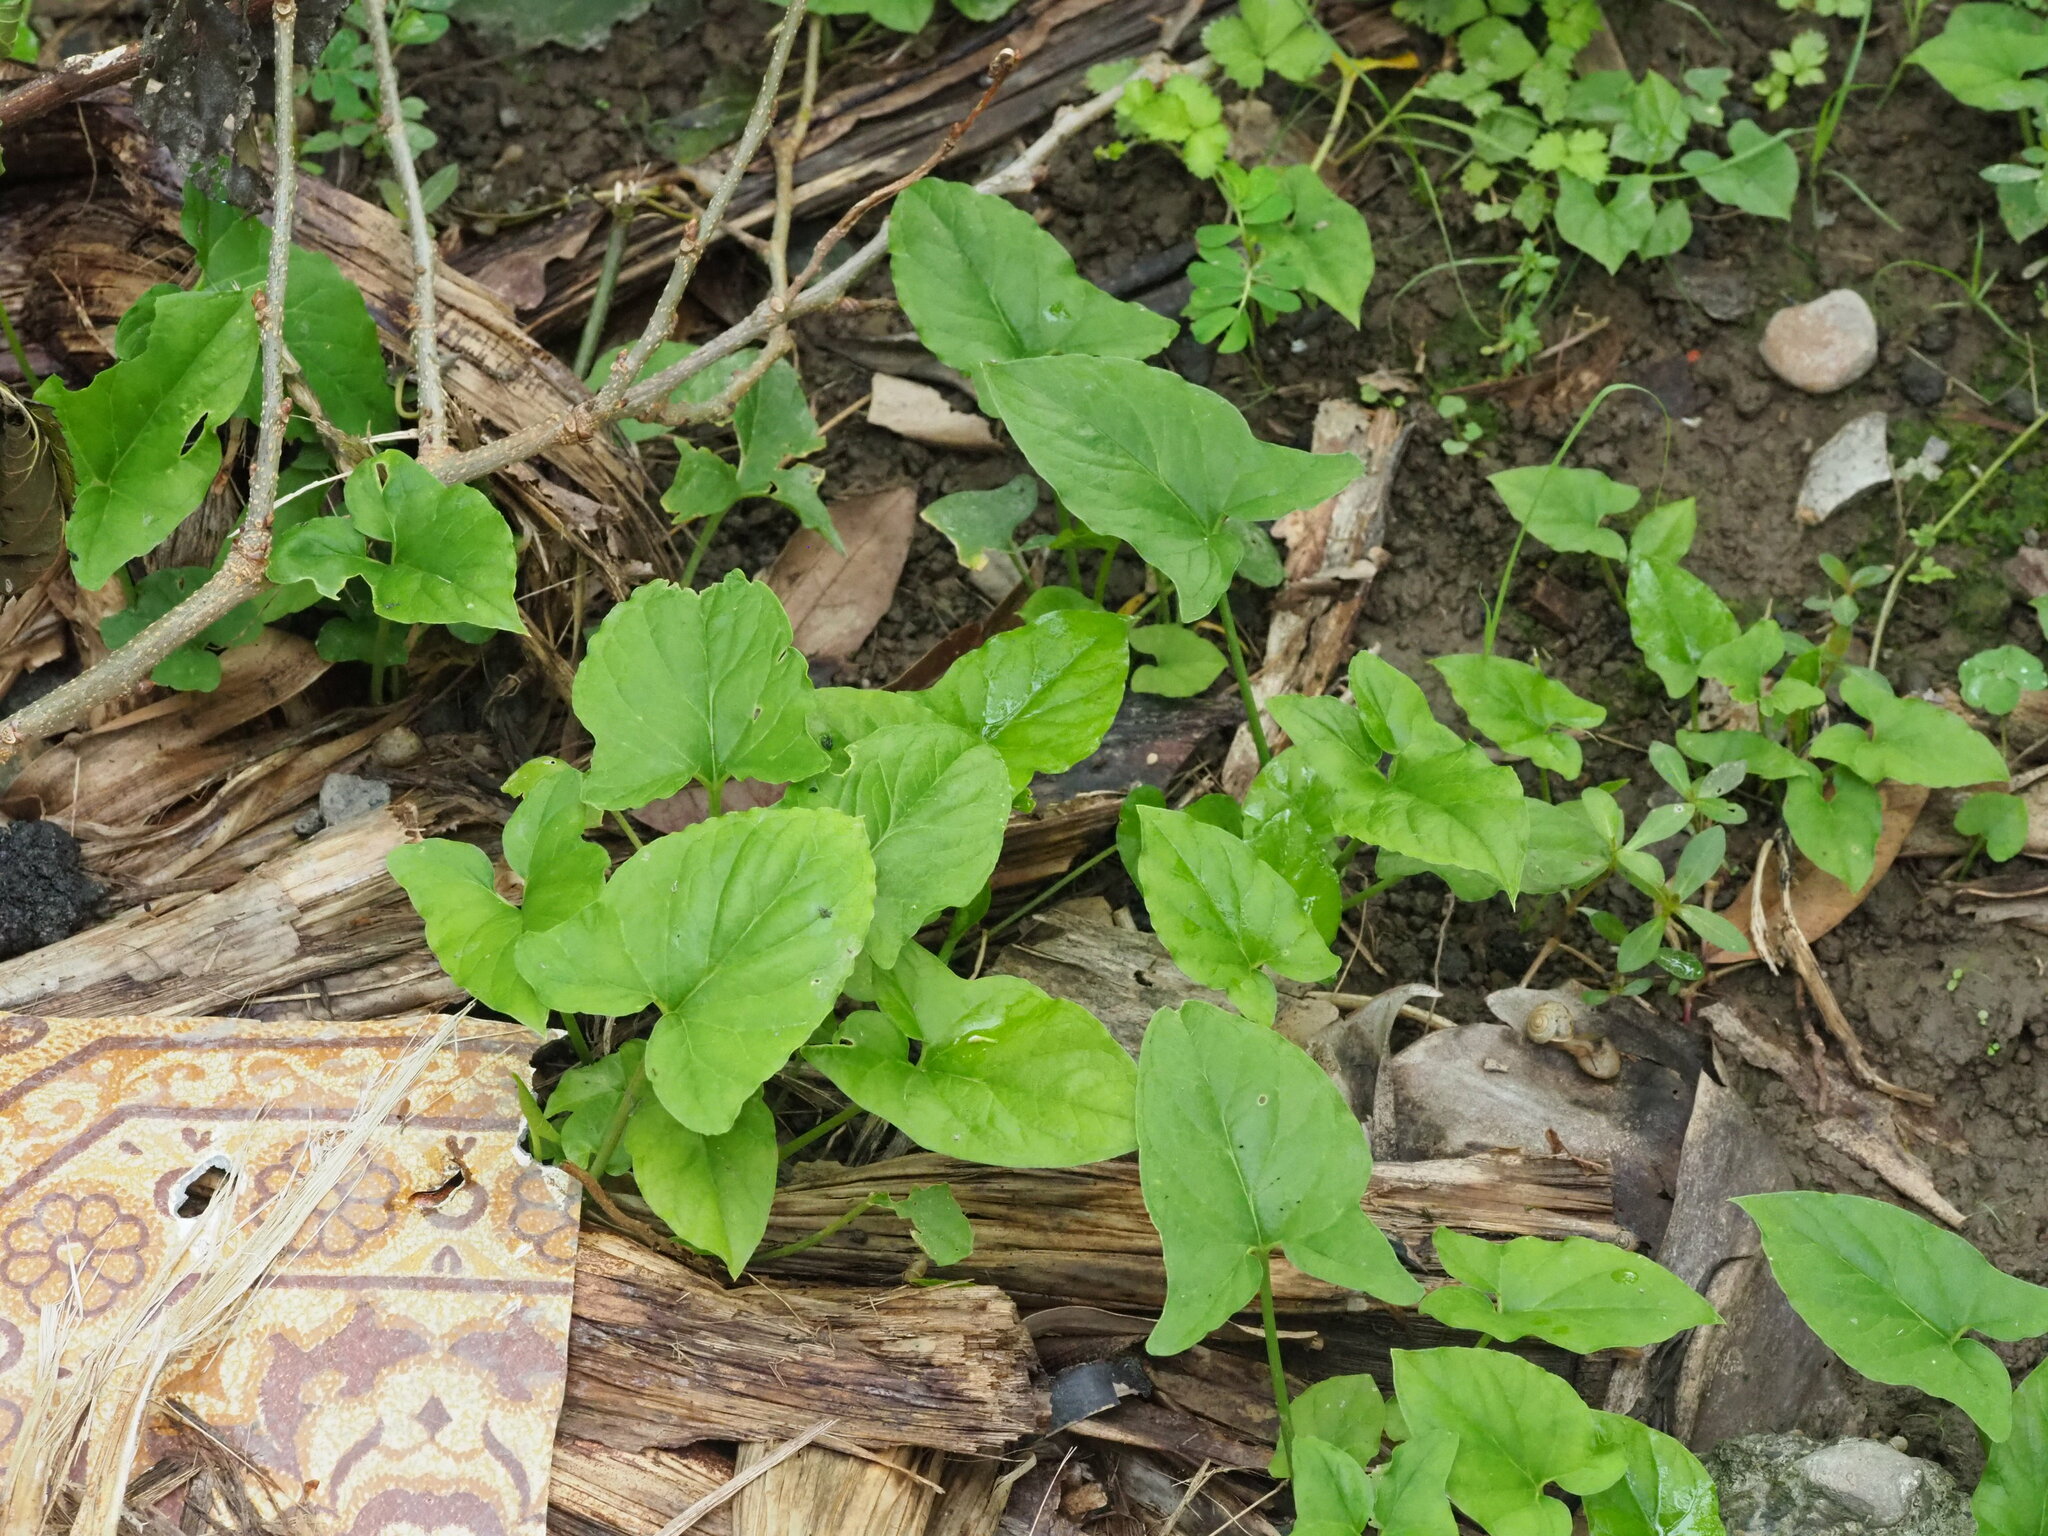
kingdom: Plantae
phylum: Tracheophyta
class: Liliopsida
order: Alismatales
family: Araceae
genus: Typhonium
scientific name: Typhonium blumei
